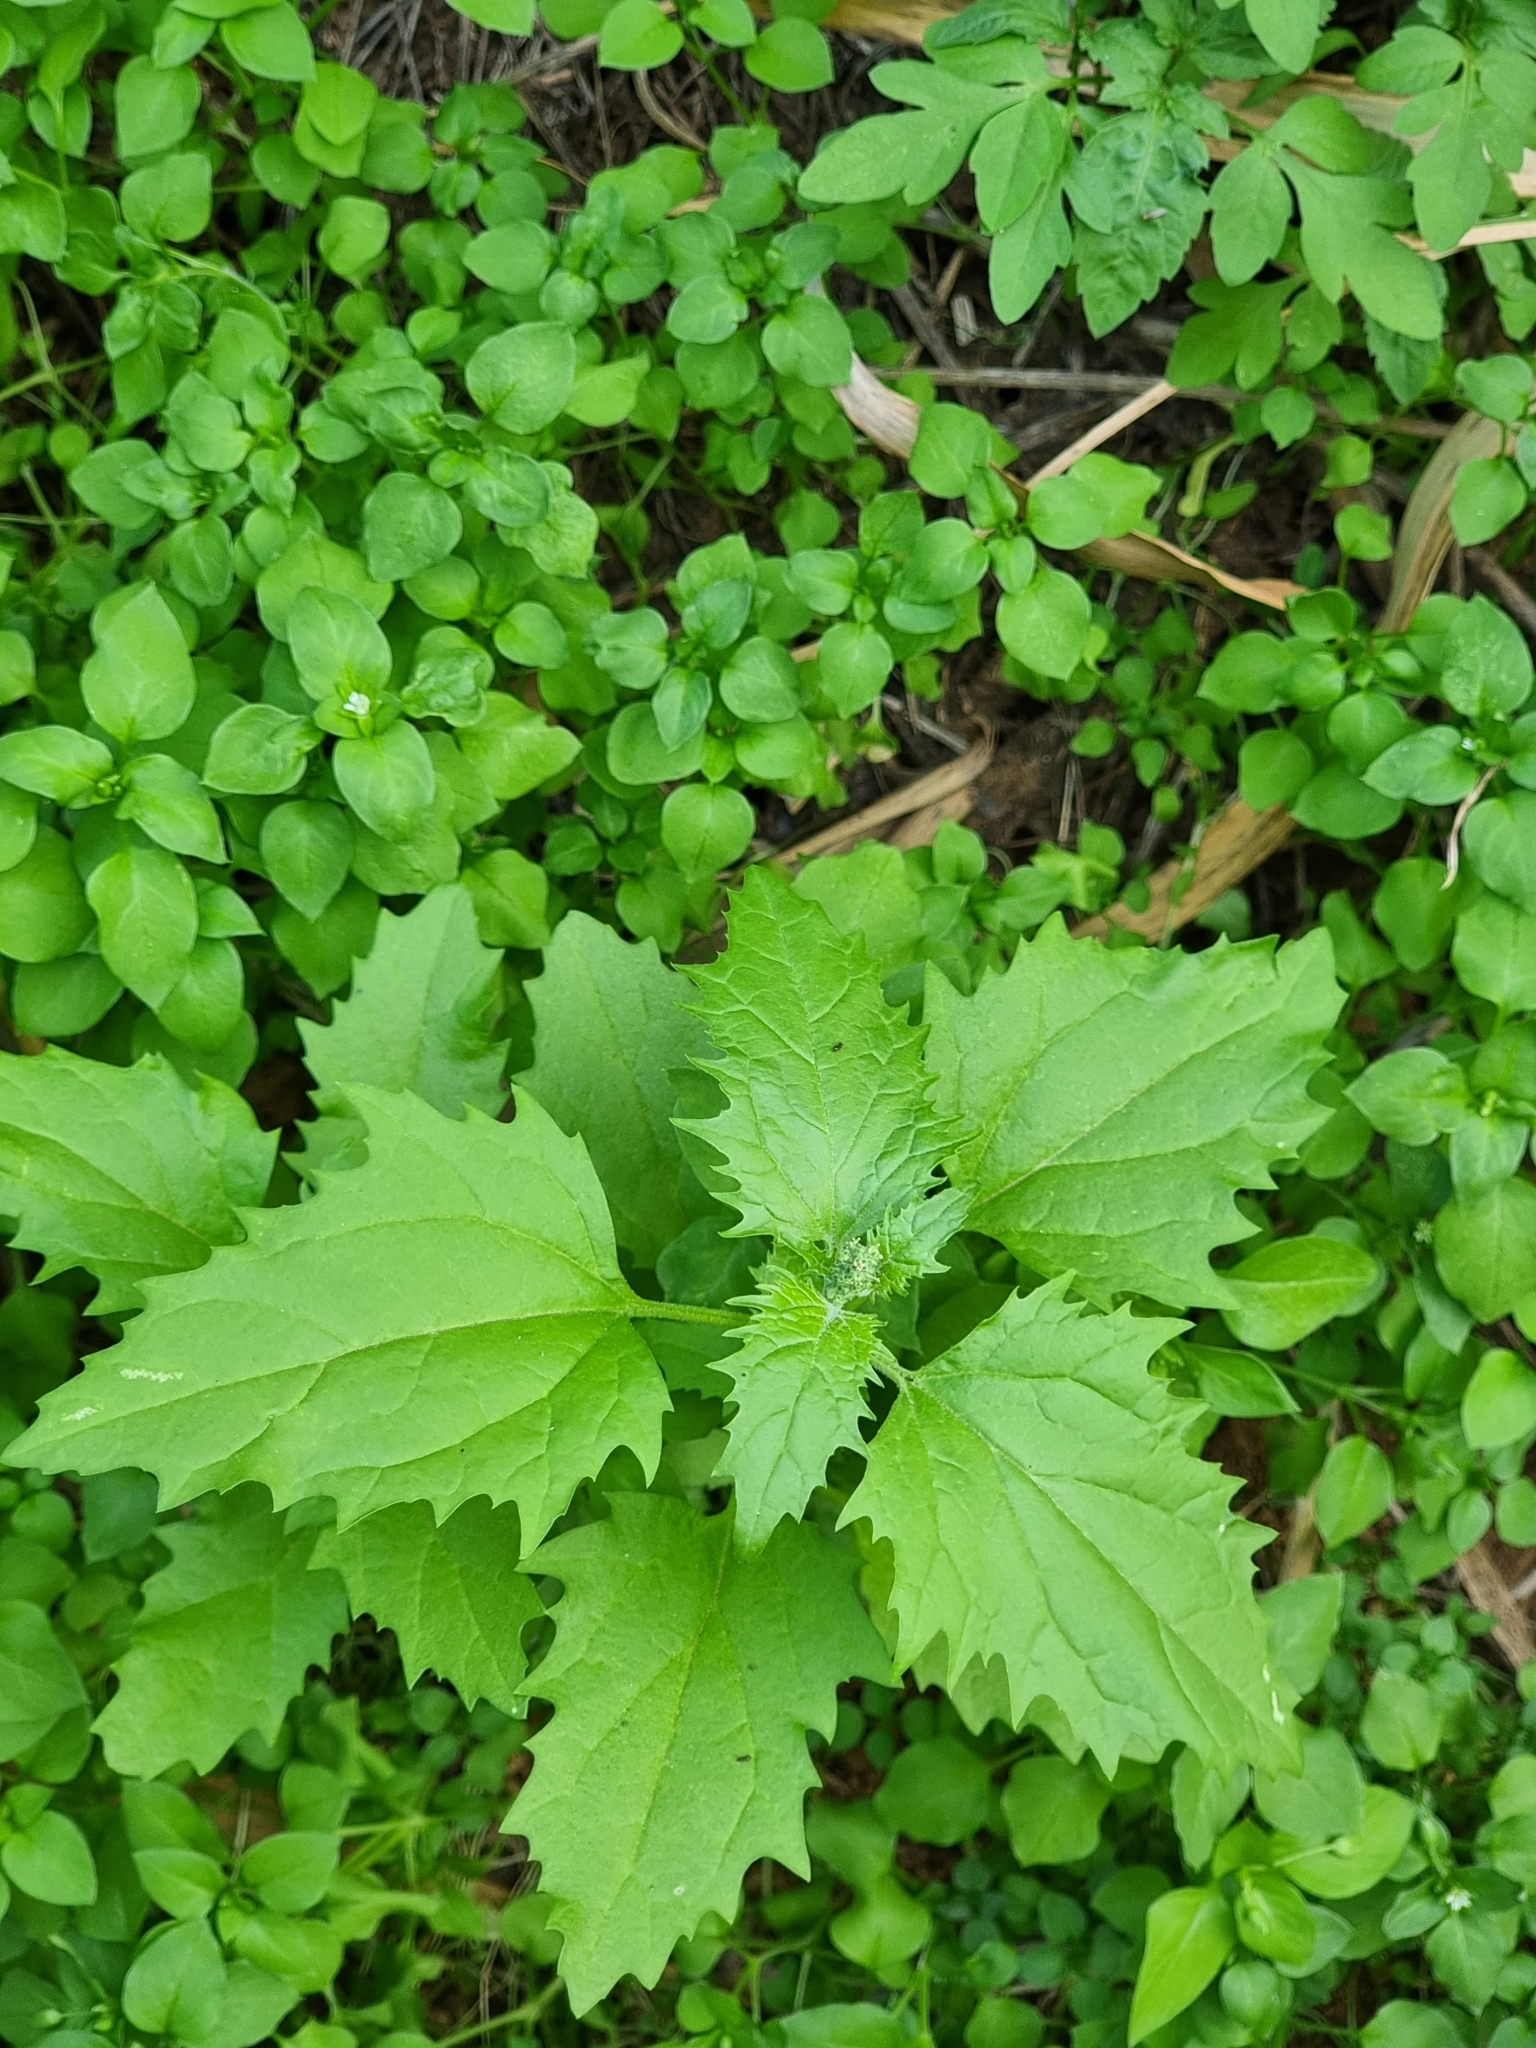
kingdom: Plantae
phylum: Tracheophyta
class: Magnoliopsida
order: Caryophyllales
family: Amaranthaceae
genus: Chenopodiastrum
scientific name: Chenopodiastrum murale
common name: Sowbane
